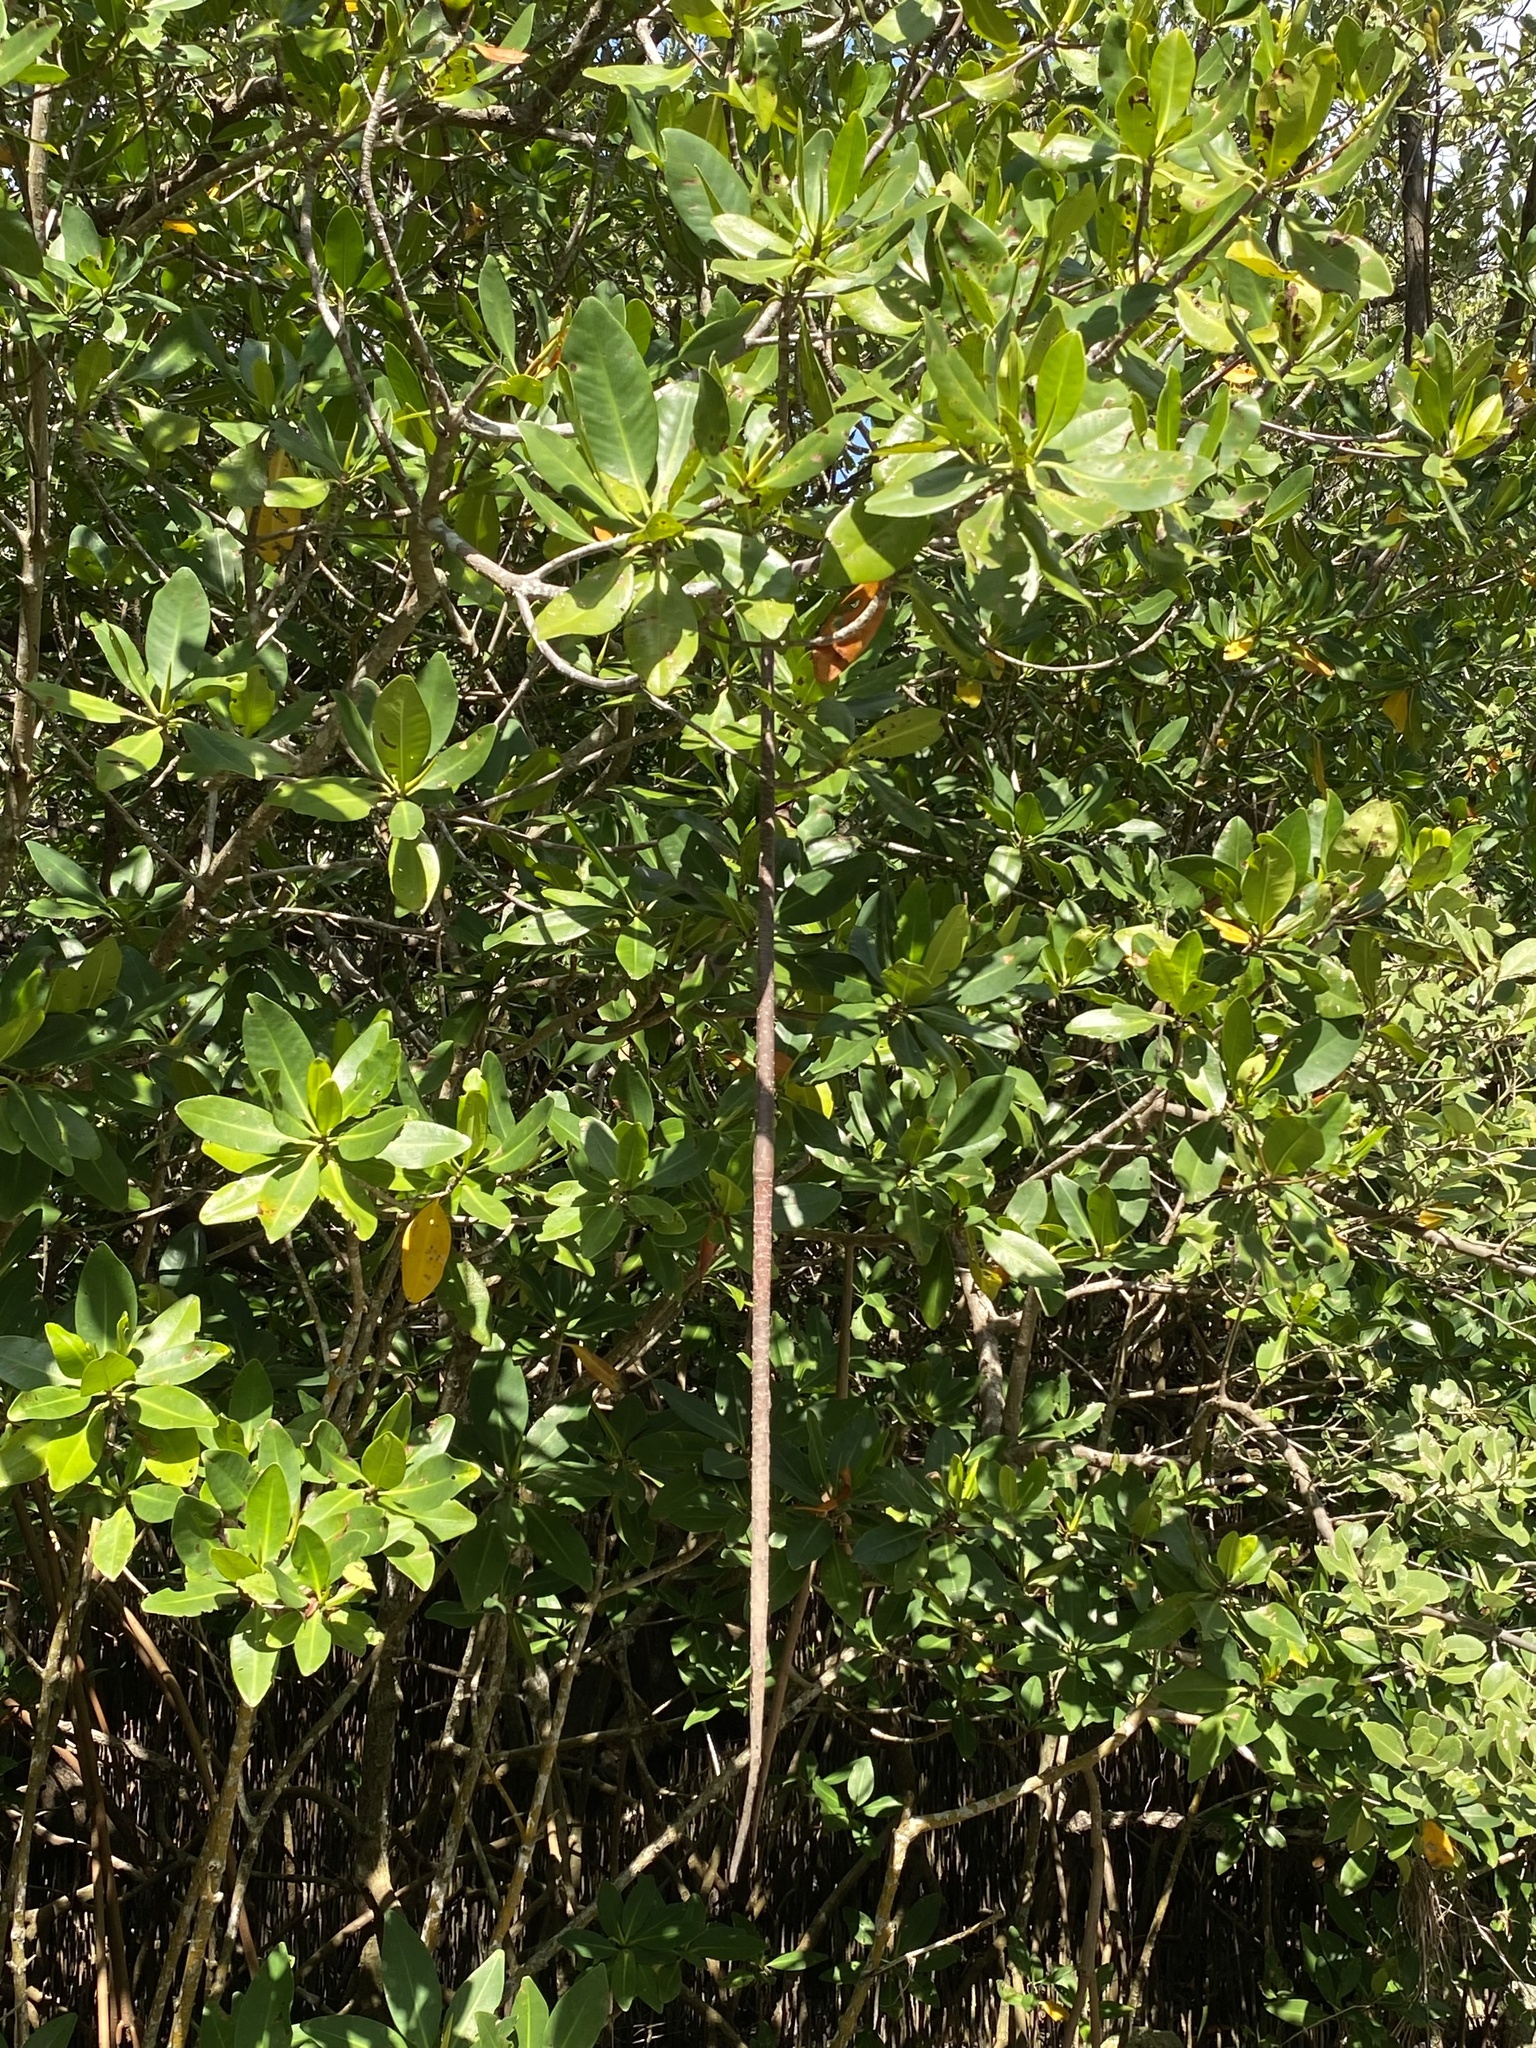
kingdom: Plantae
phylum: Tracheophyta
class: Magnoliopsida
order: Malpighiales
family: Rhizophoraceae
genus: Rhizophora
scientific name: Rhizophora mangle
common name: Red mangrove
